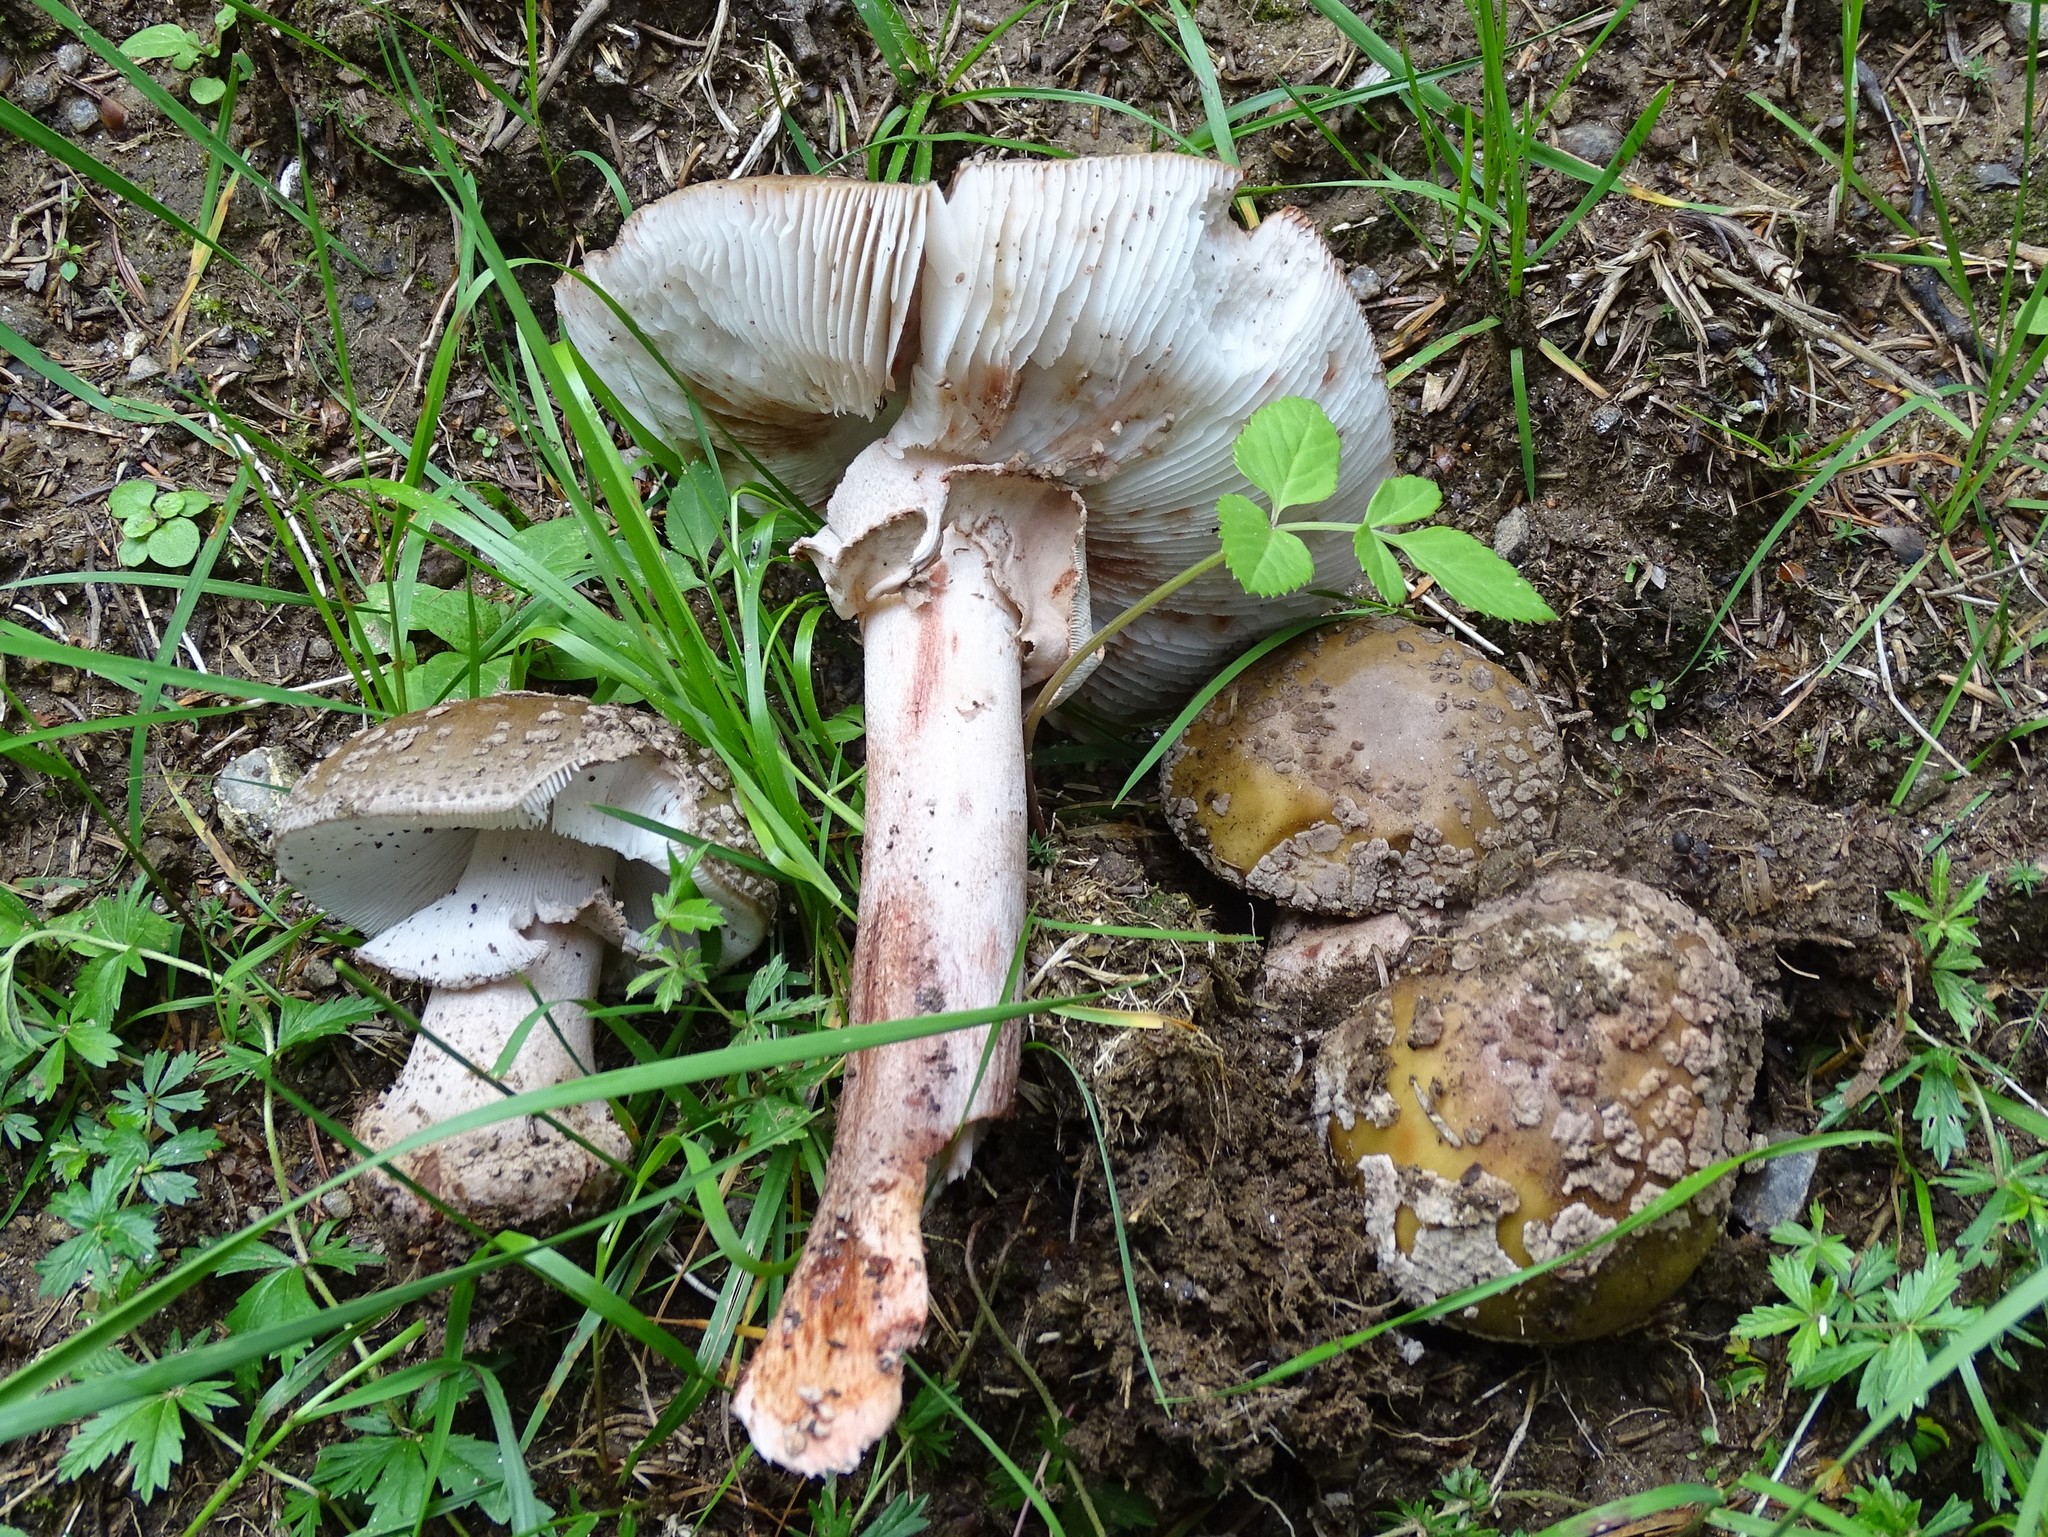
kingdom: Fungi
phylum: Basidiomycota
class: Agaricomycetes
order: Agaricales
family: Amanitaceae
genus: Amanita
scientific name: Amanita rubescens
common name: Blusher
